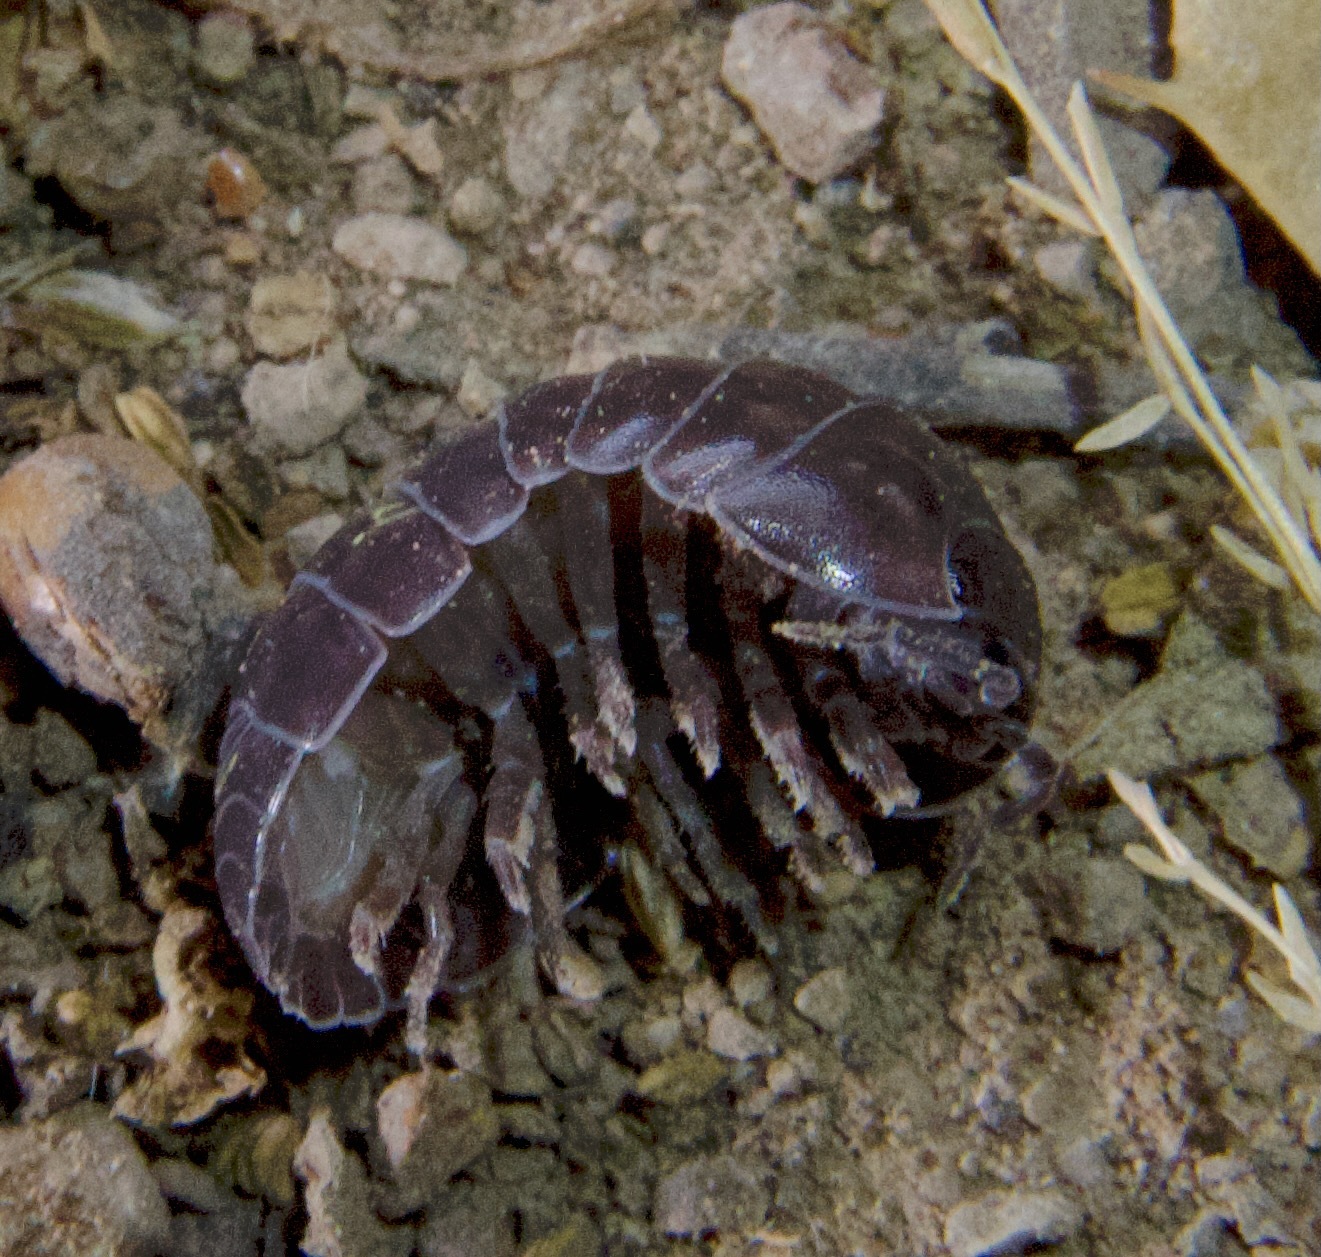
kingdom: Animalia
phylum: Arthropoda
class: Malacostraca
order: Isopoda
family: Armadillidiidae
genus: Armadillidium
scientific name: Armadillidium vulgare
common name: Common pill woodlouse
